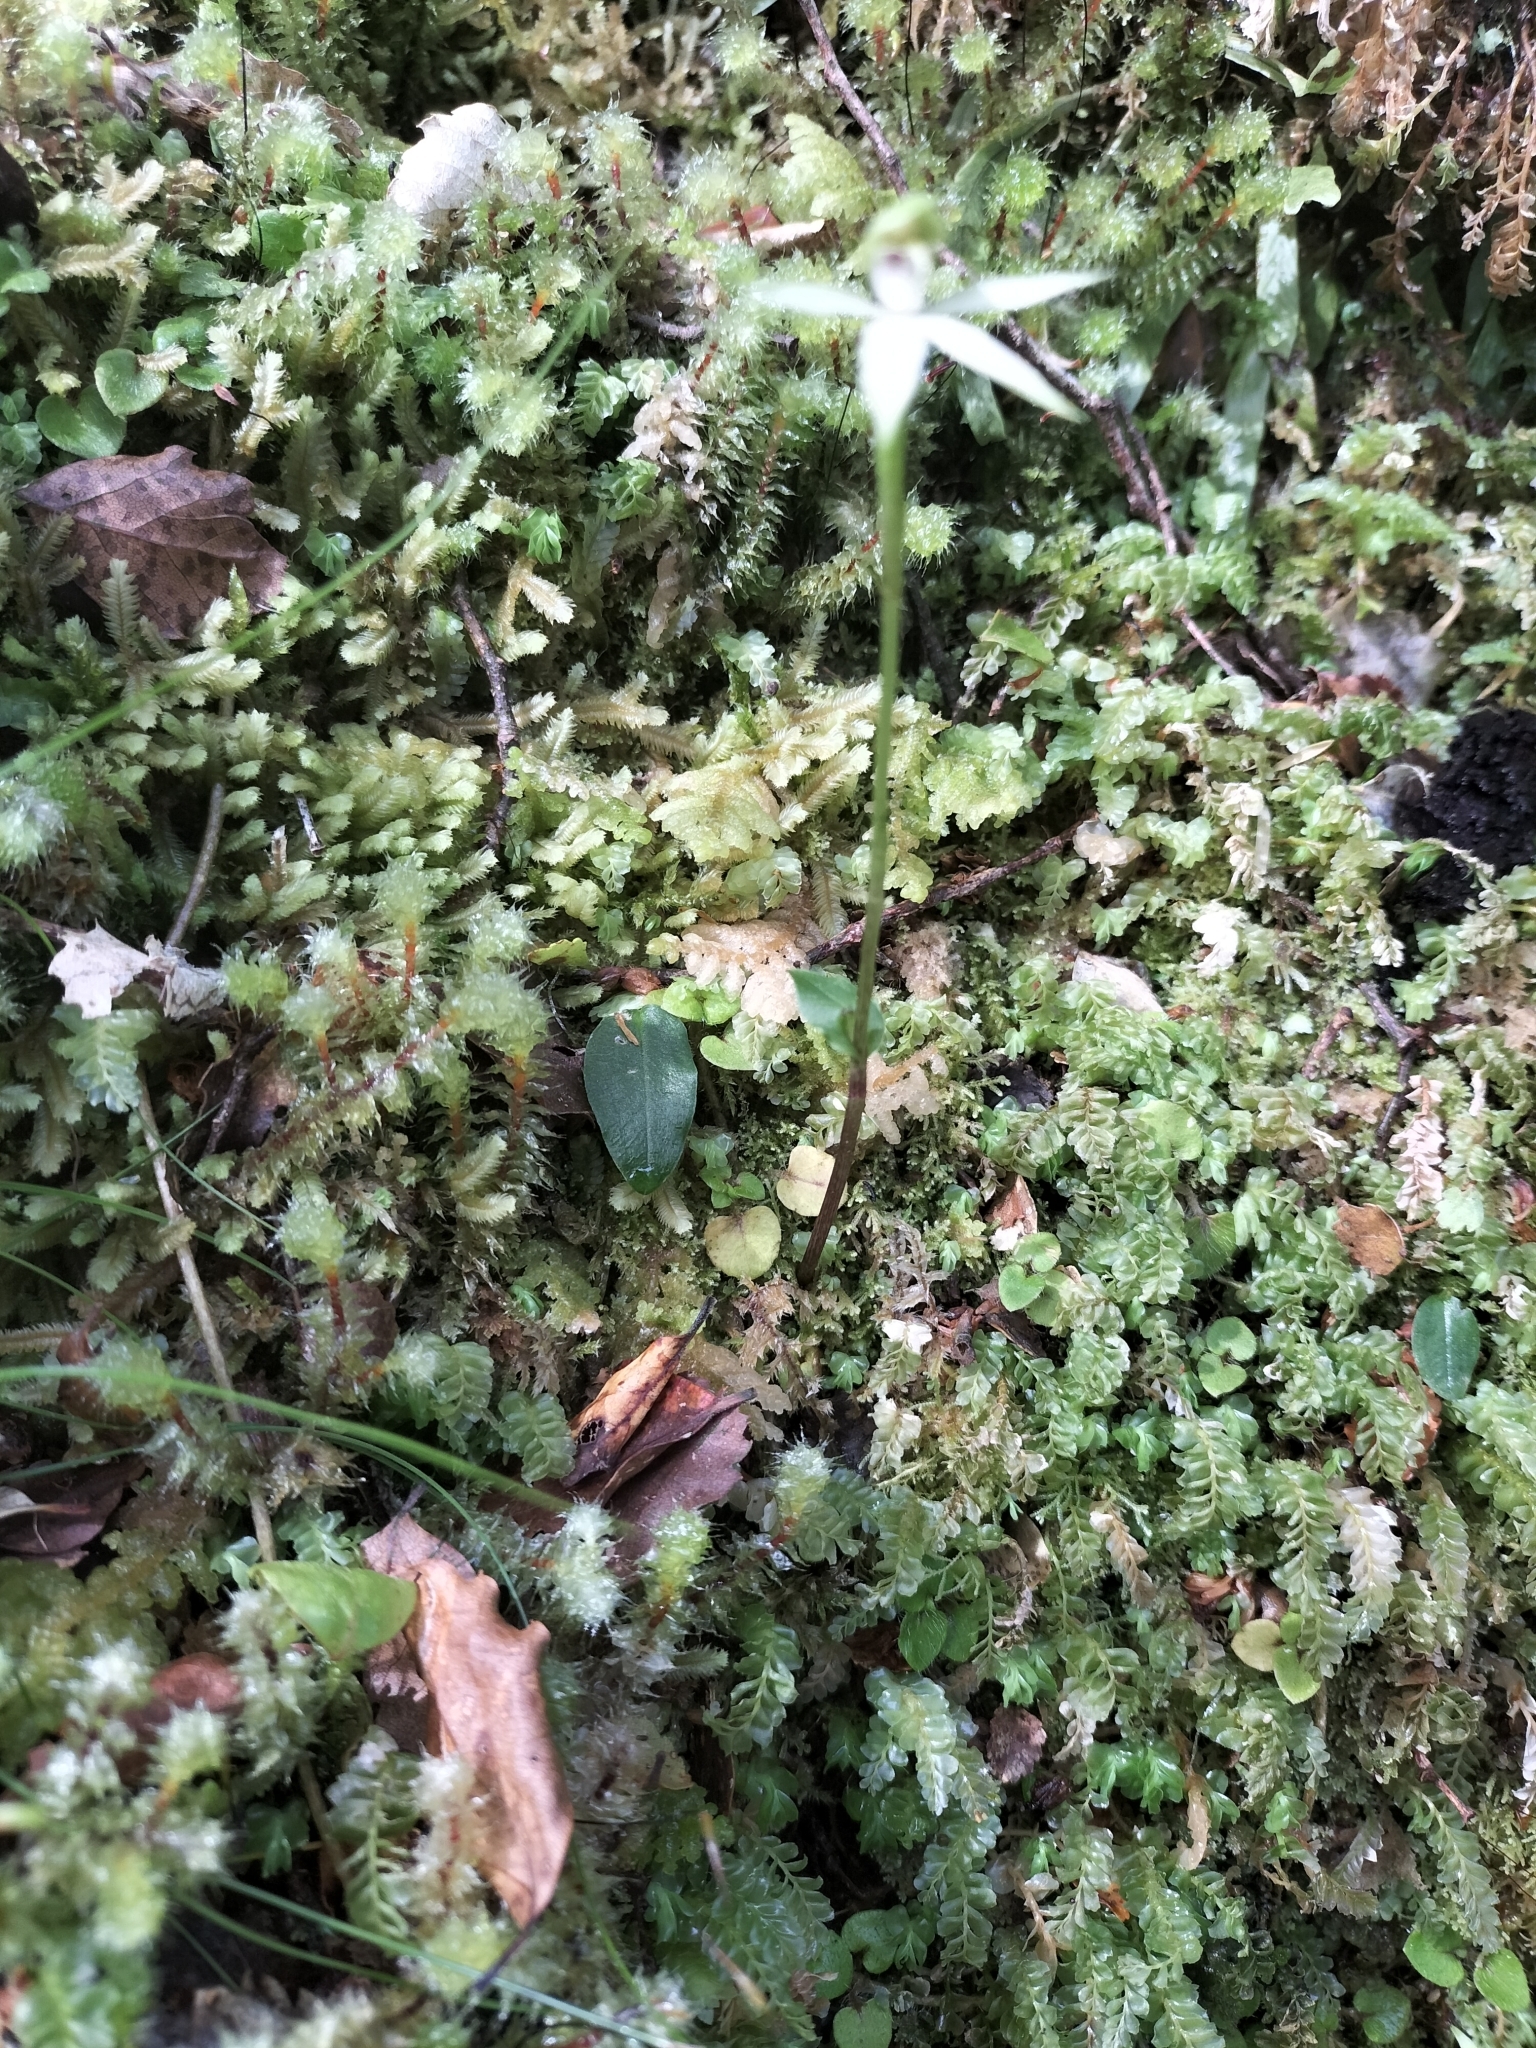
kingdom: Plantae
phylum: Tracheophyta
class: Liliopsida
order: Asparagales
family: Orchidaceae
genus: Adenochilus
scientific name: Adenochilus gracilis
